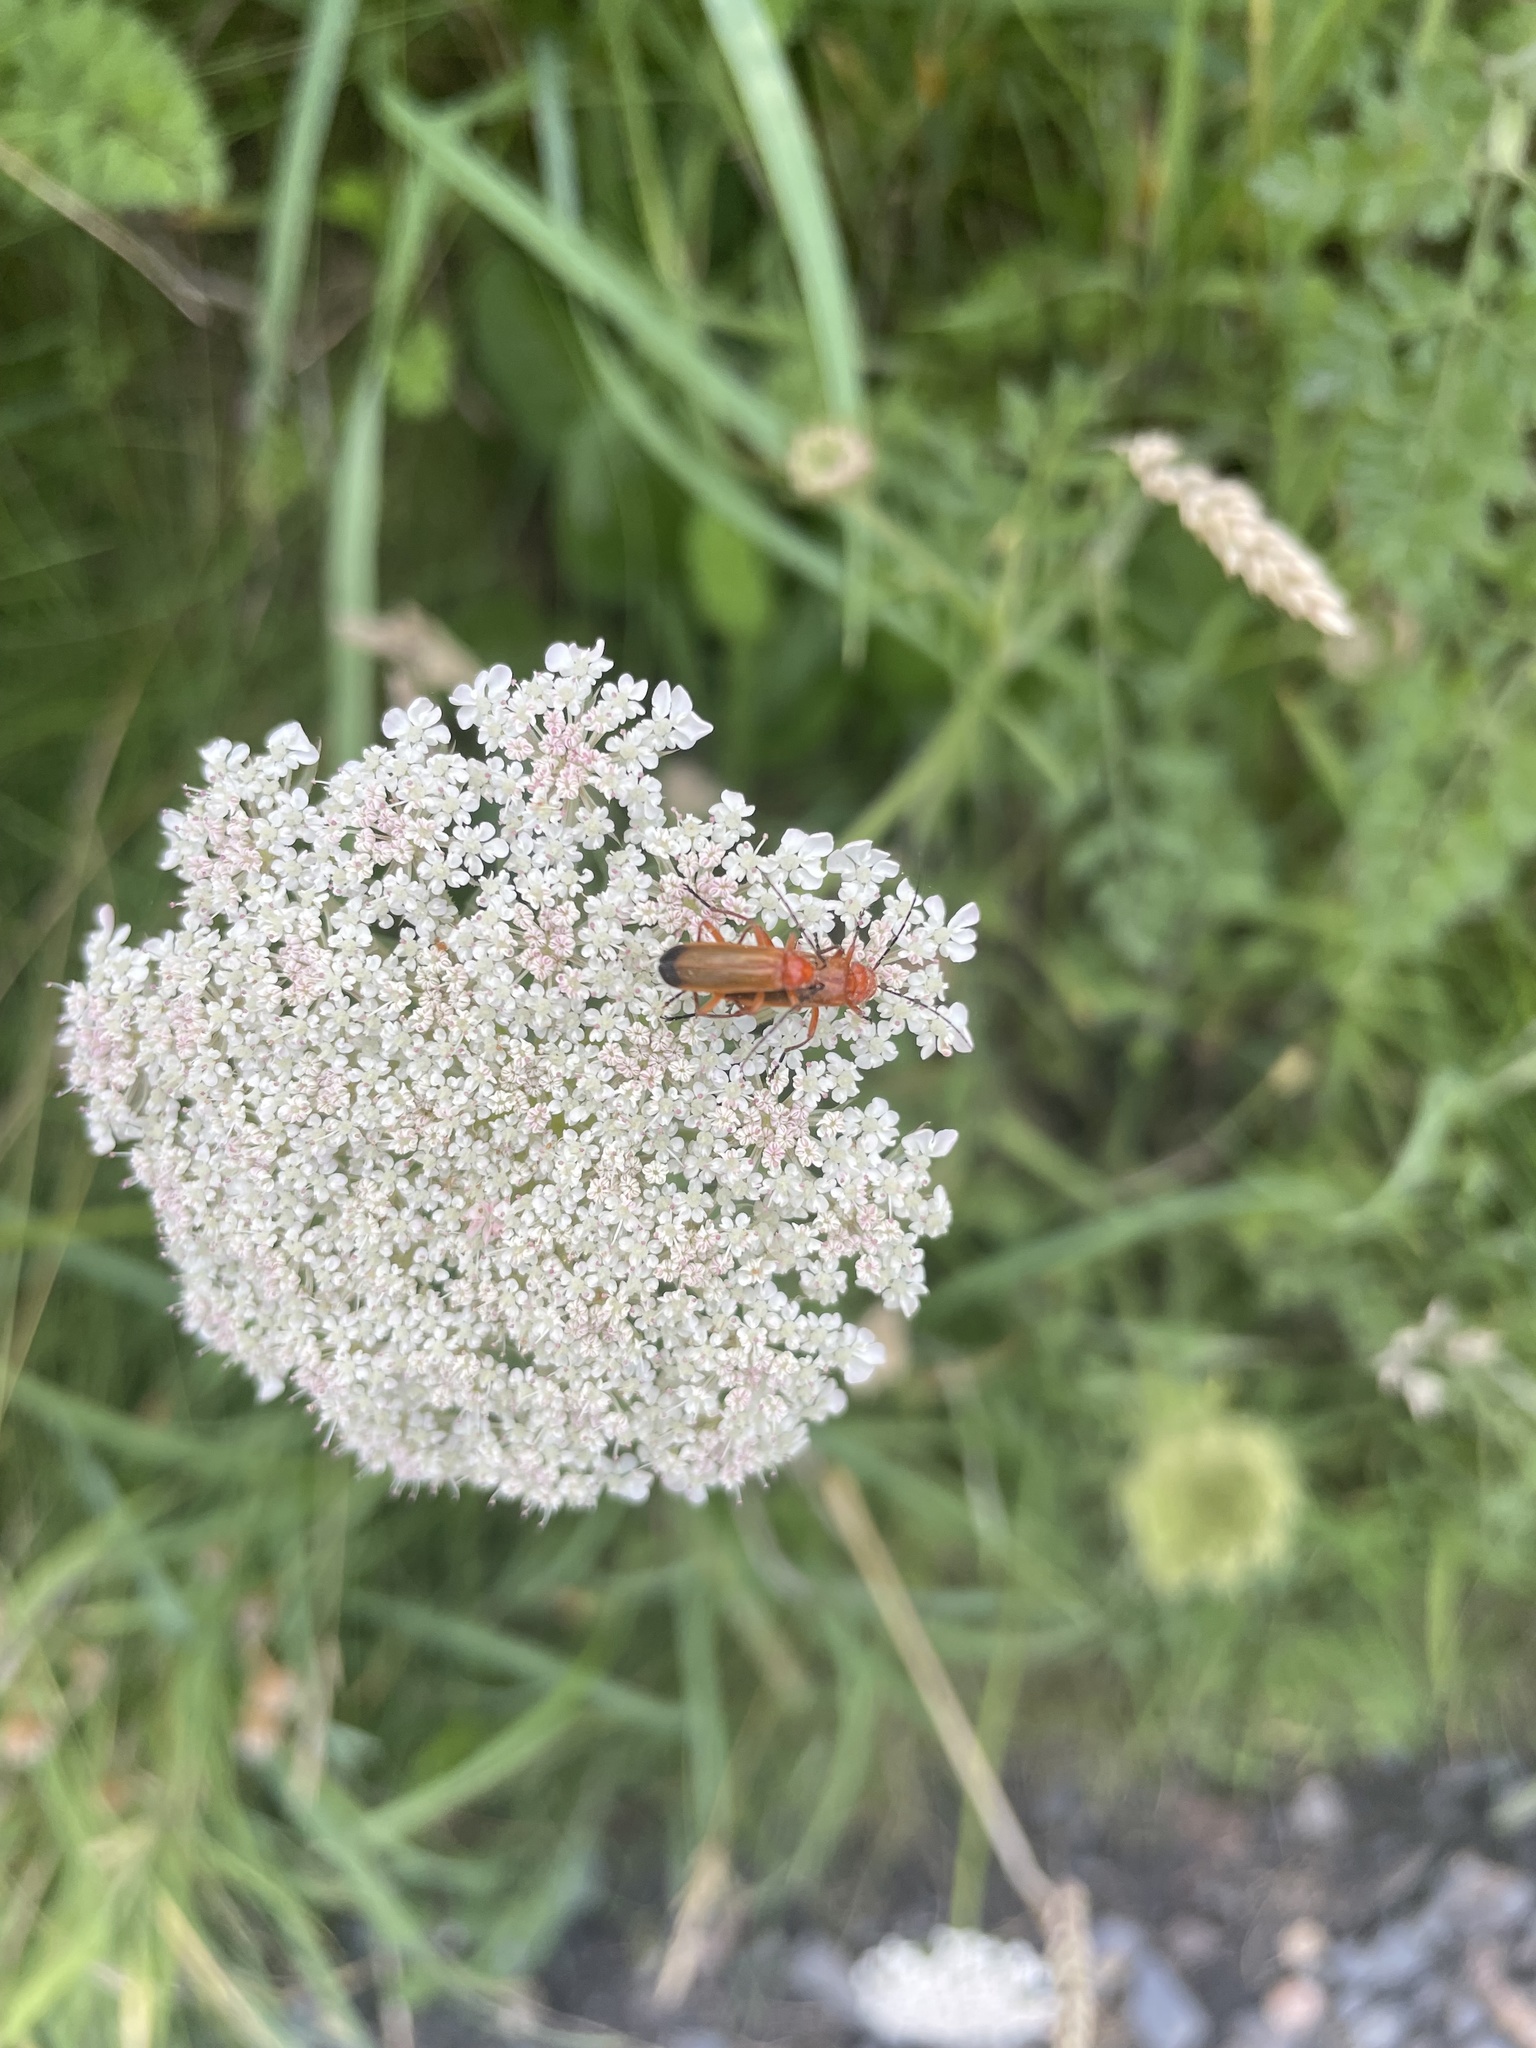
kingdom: Animalia
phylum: Arthropoda
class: Insecta
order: Coleoptera
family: Cantharidae
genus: Rhagonycha
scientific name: Rhagonycha fulva
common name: Common red soldier beetle
